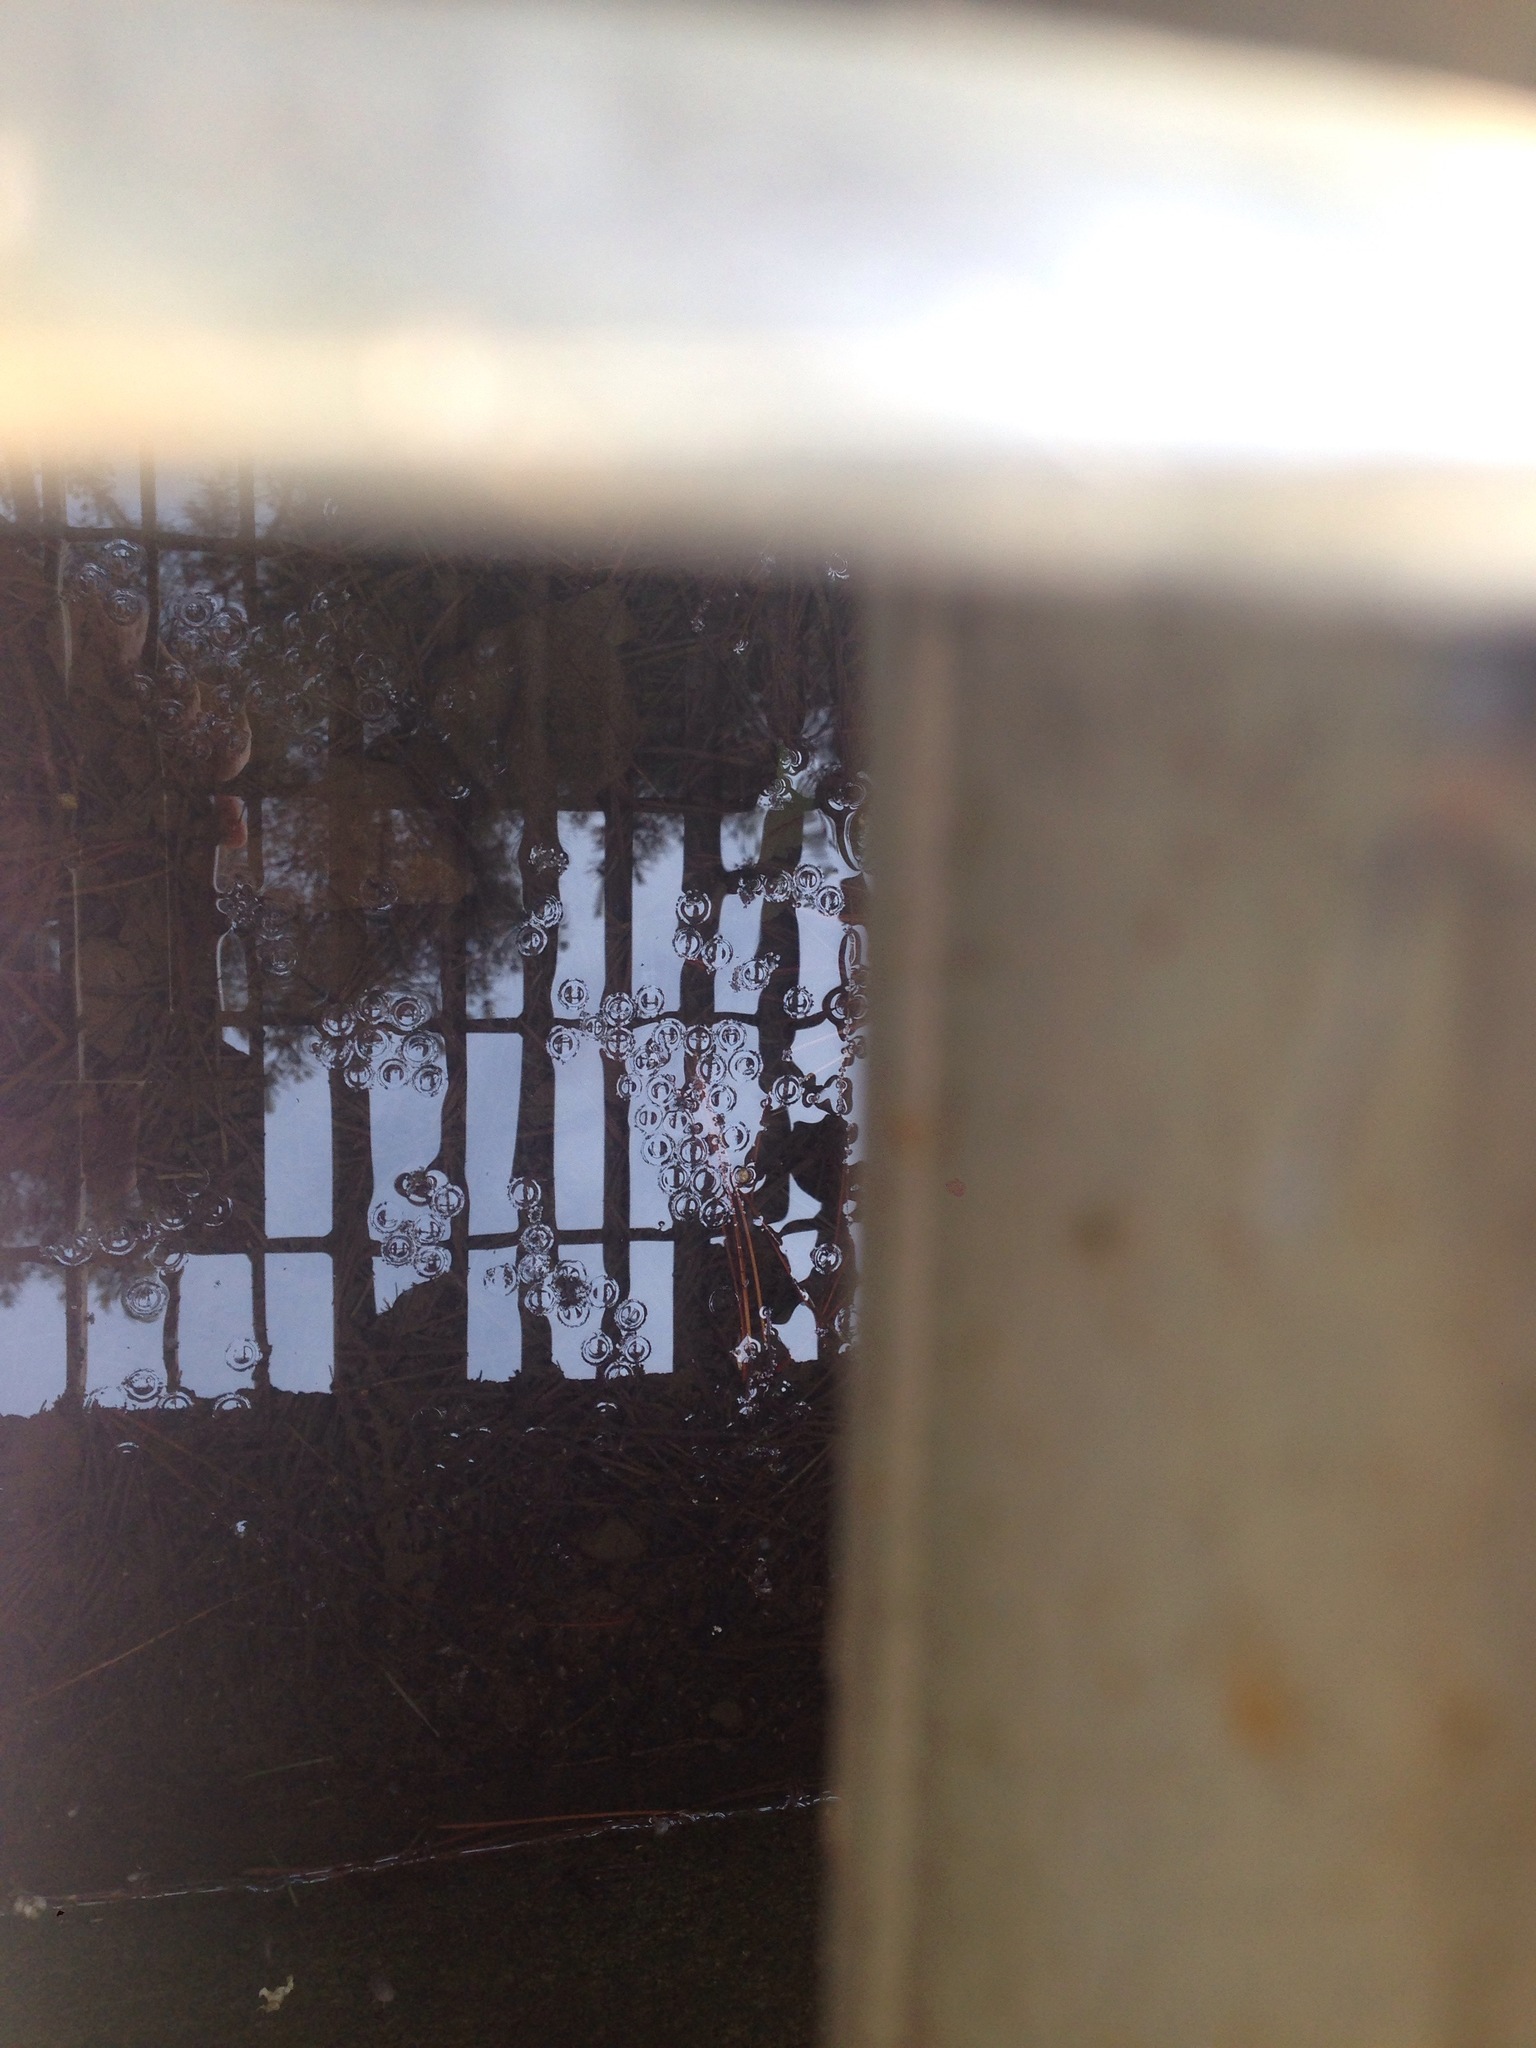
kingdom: Animalia
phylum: Chordata
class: Amphibia
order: Anura
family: Microhylidae
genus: Kaloula
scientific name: Kaloula borealis
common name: Boreal digging frog
